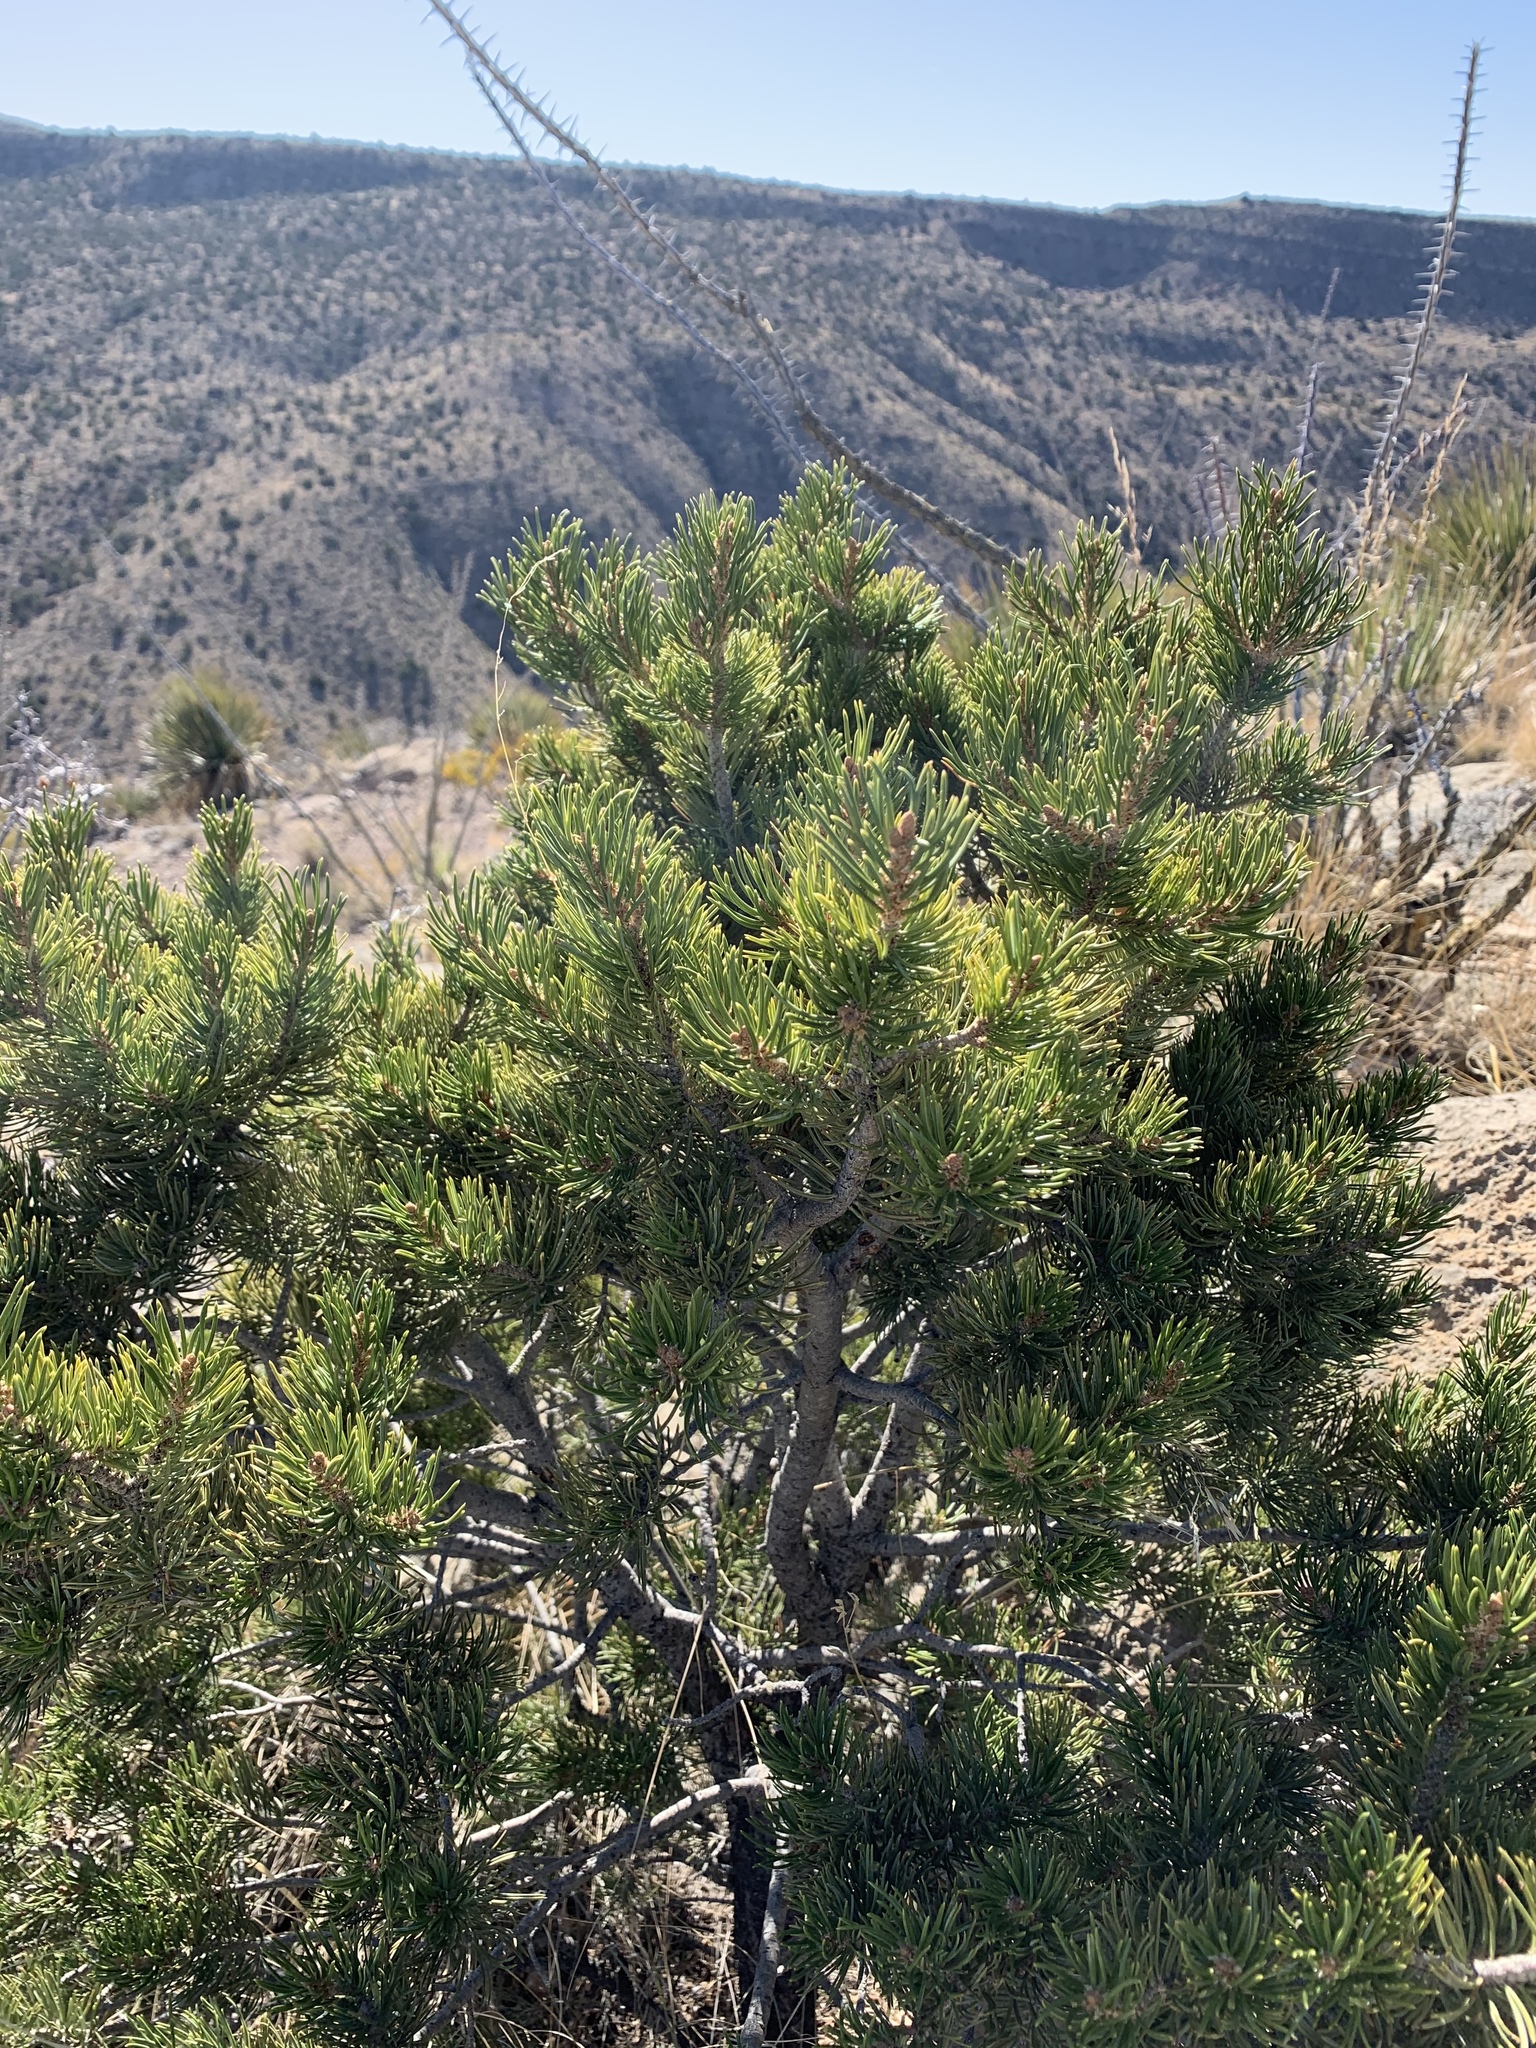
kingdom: Plantae
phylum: Tracheophyta
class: Pinopsida
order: Pinales
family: Pinaceae
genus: Pinus
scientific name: Pinus edulis
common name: Colorado pinyon
